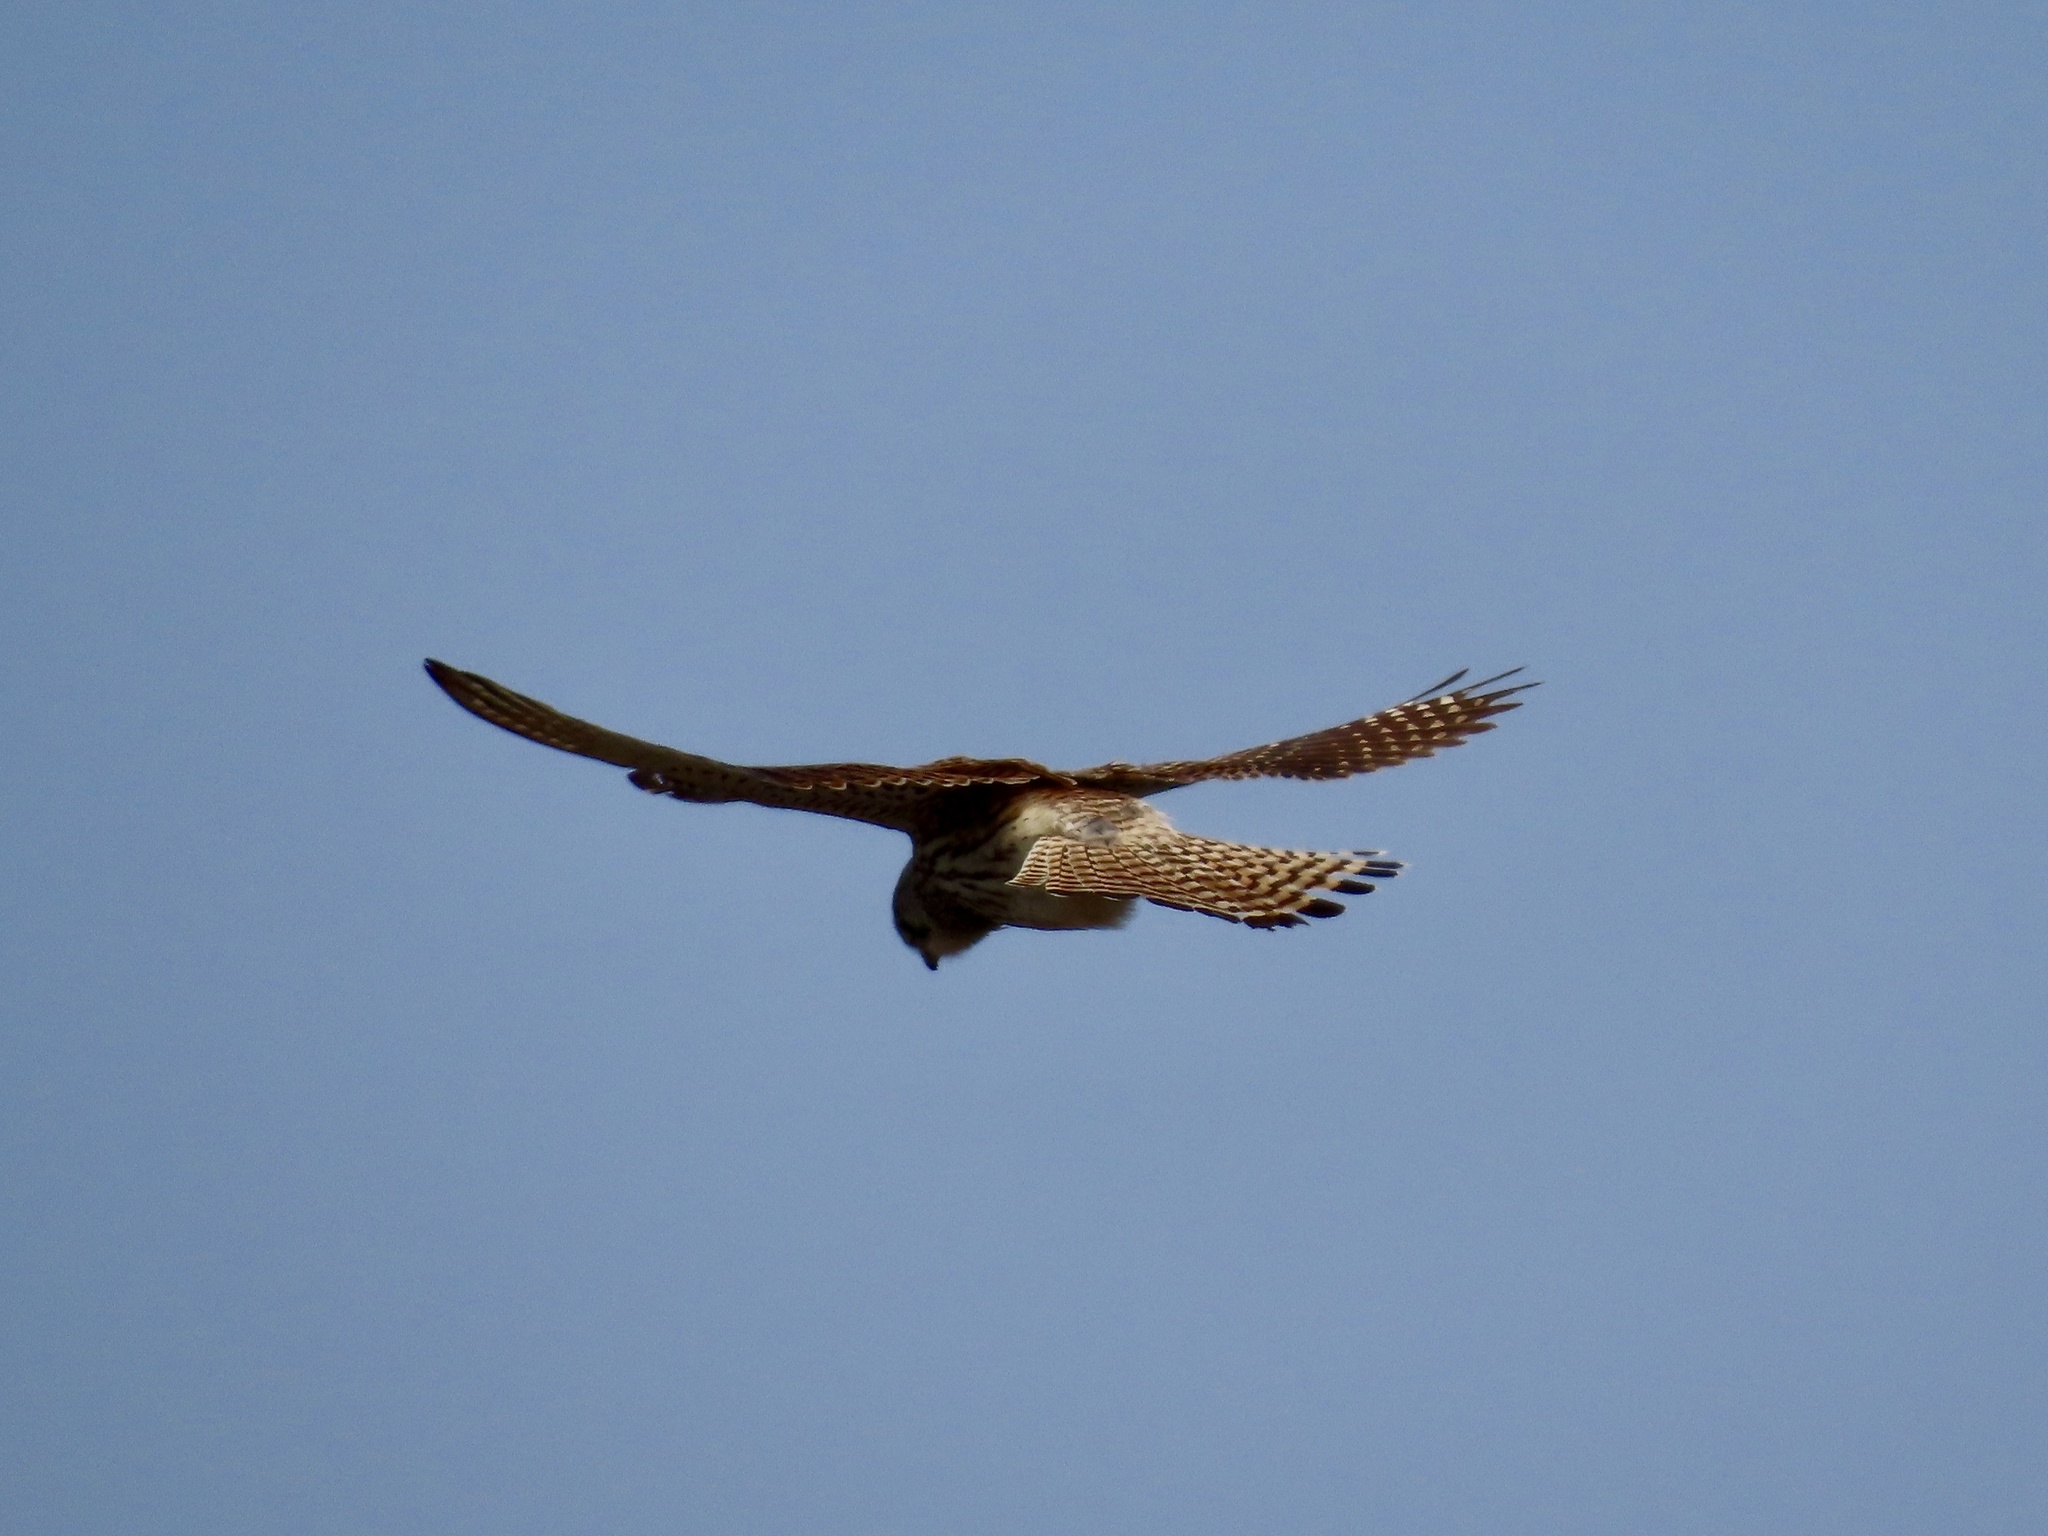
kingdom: Animalia
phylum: Chordata
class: Aves
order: Falconiformes
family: Falconidae
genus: Falco
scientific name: Falco tinnunculus
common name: Common kestrel
